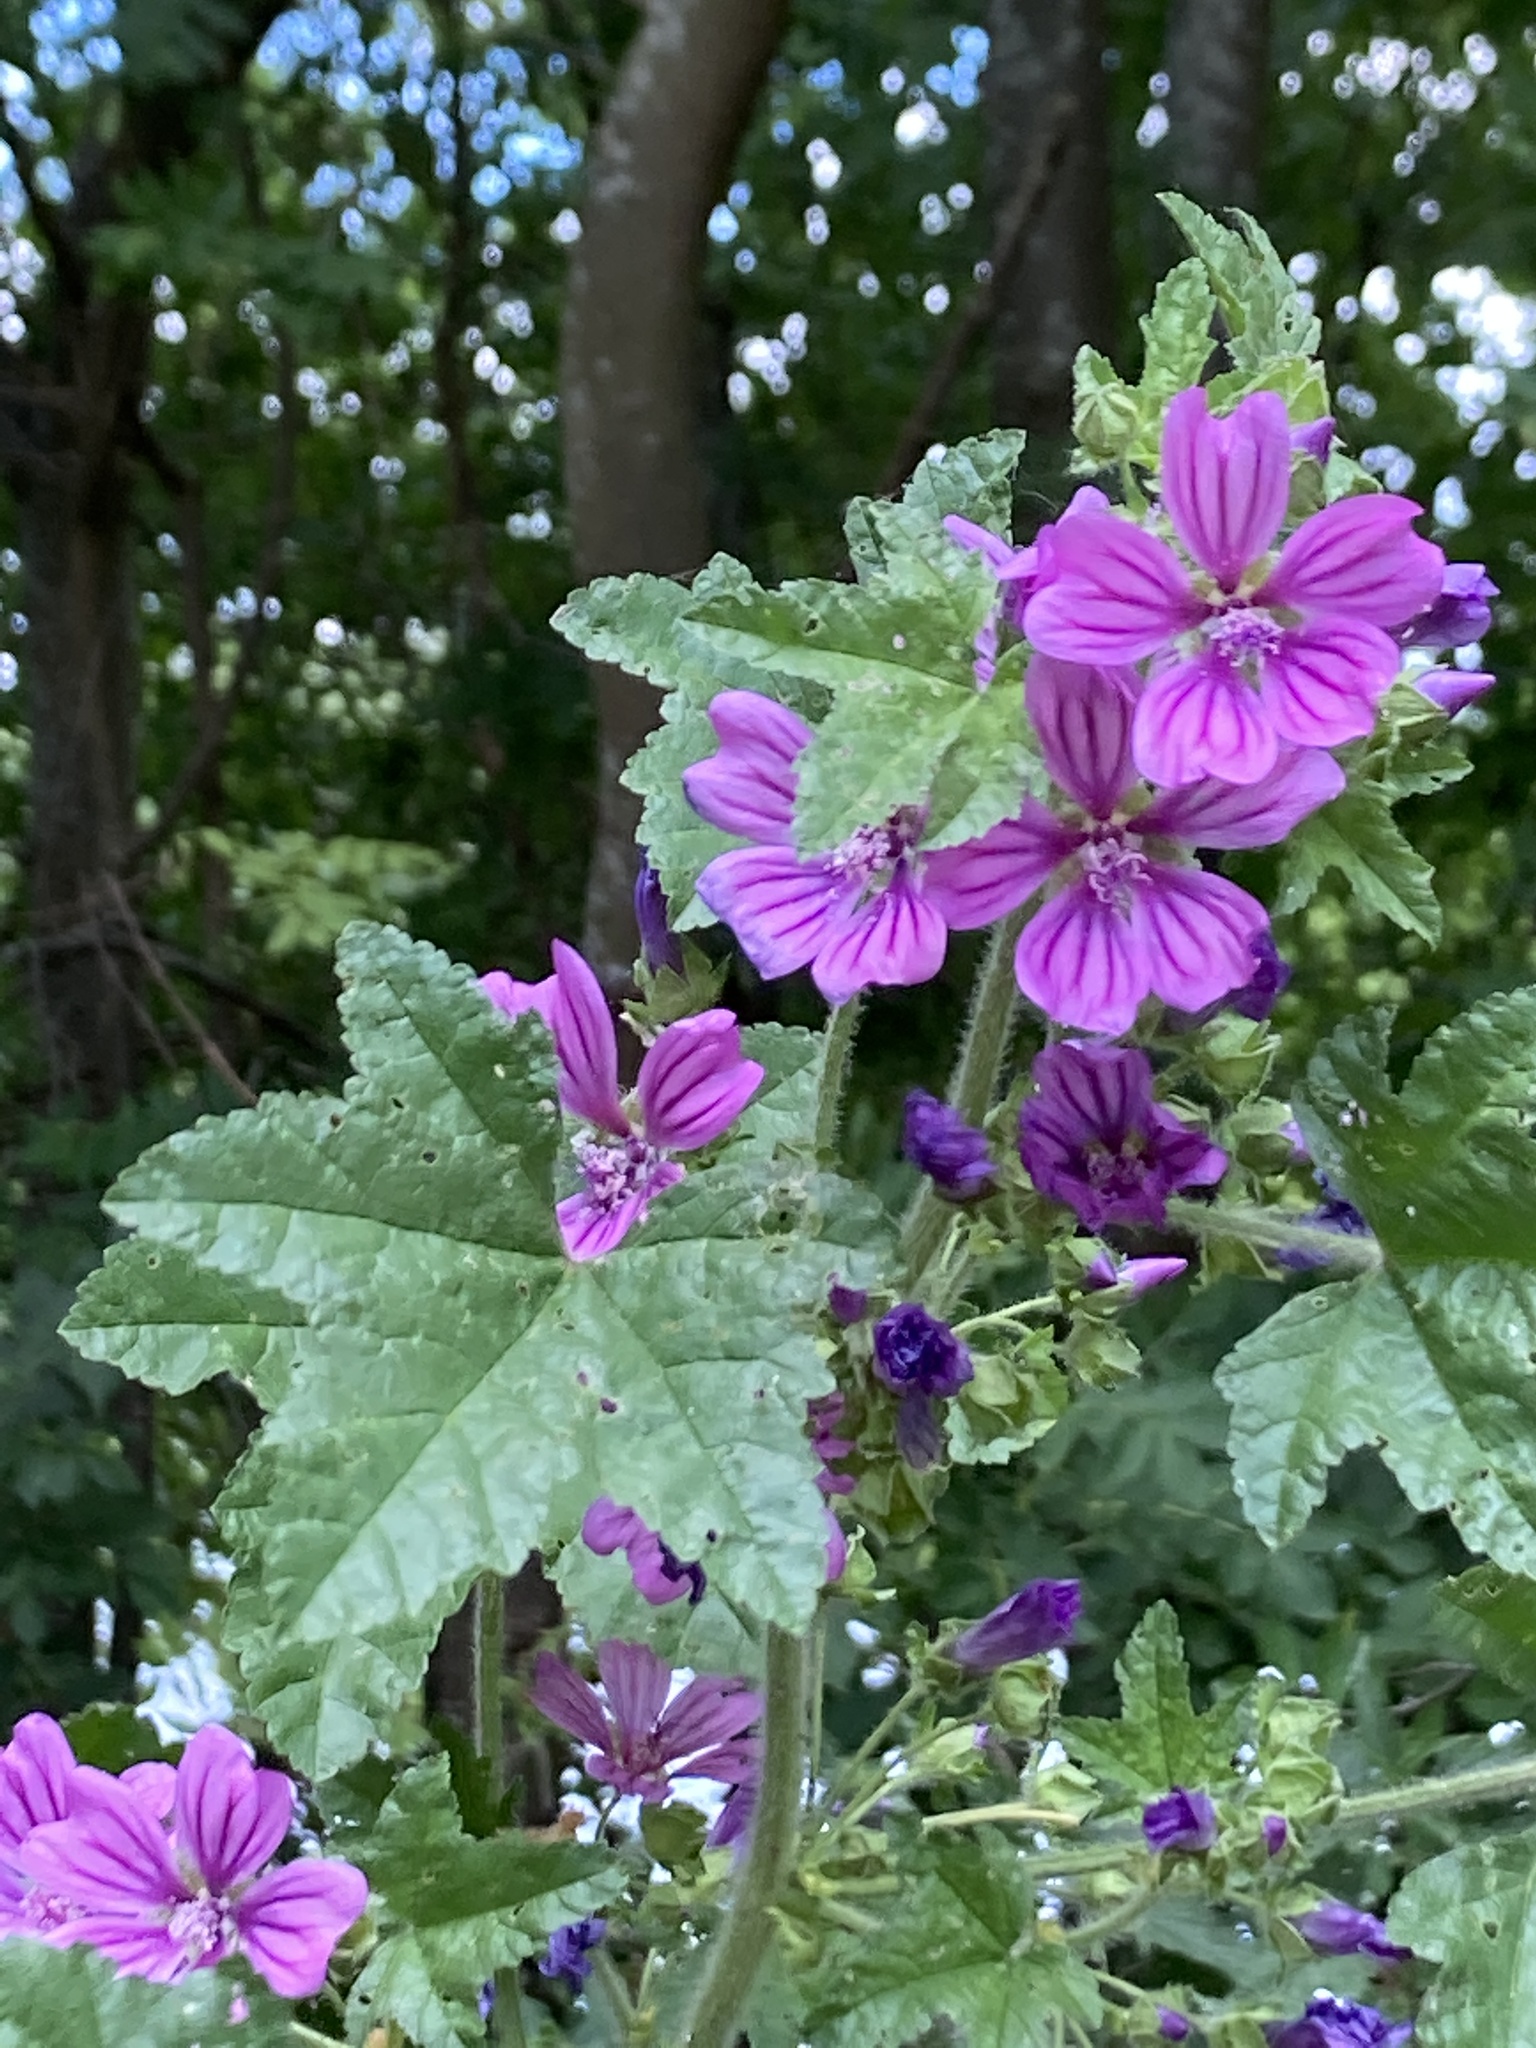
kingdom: Plantae
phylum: Tracheophyta
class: Magnoliopsida
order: Malvales
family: Malvaceae
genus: Malva
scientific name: Malva sylvestris
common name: Common mallow
